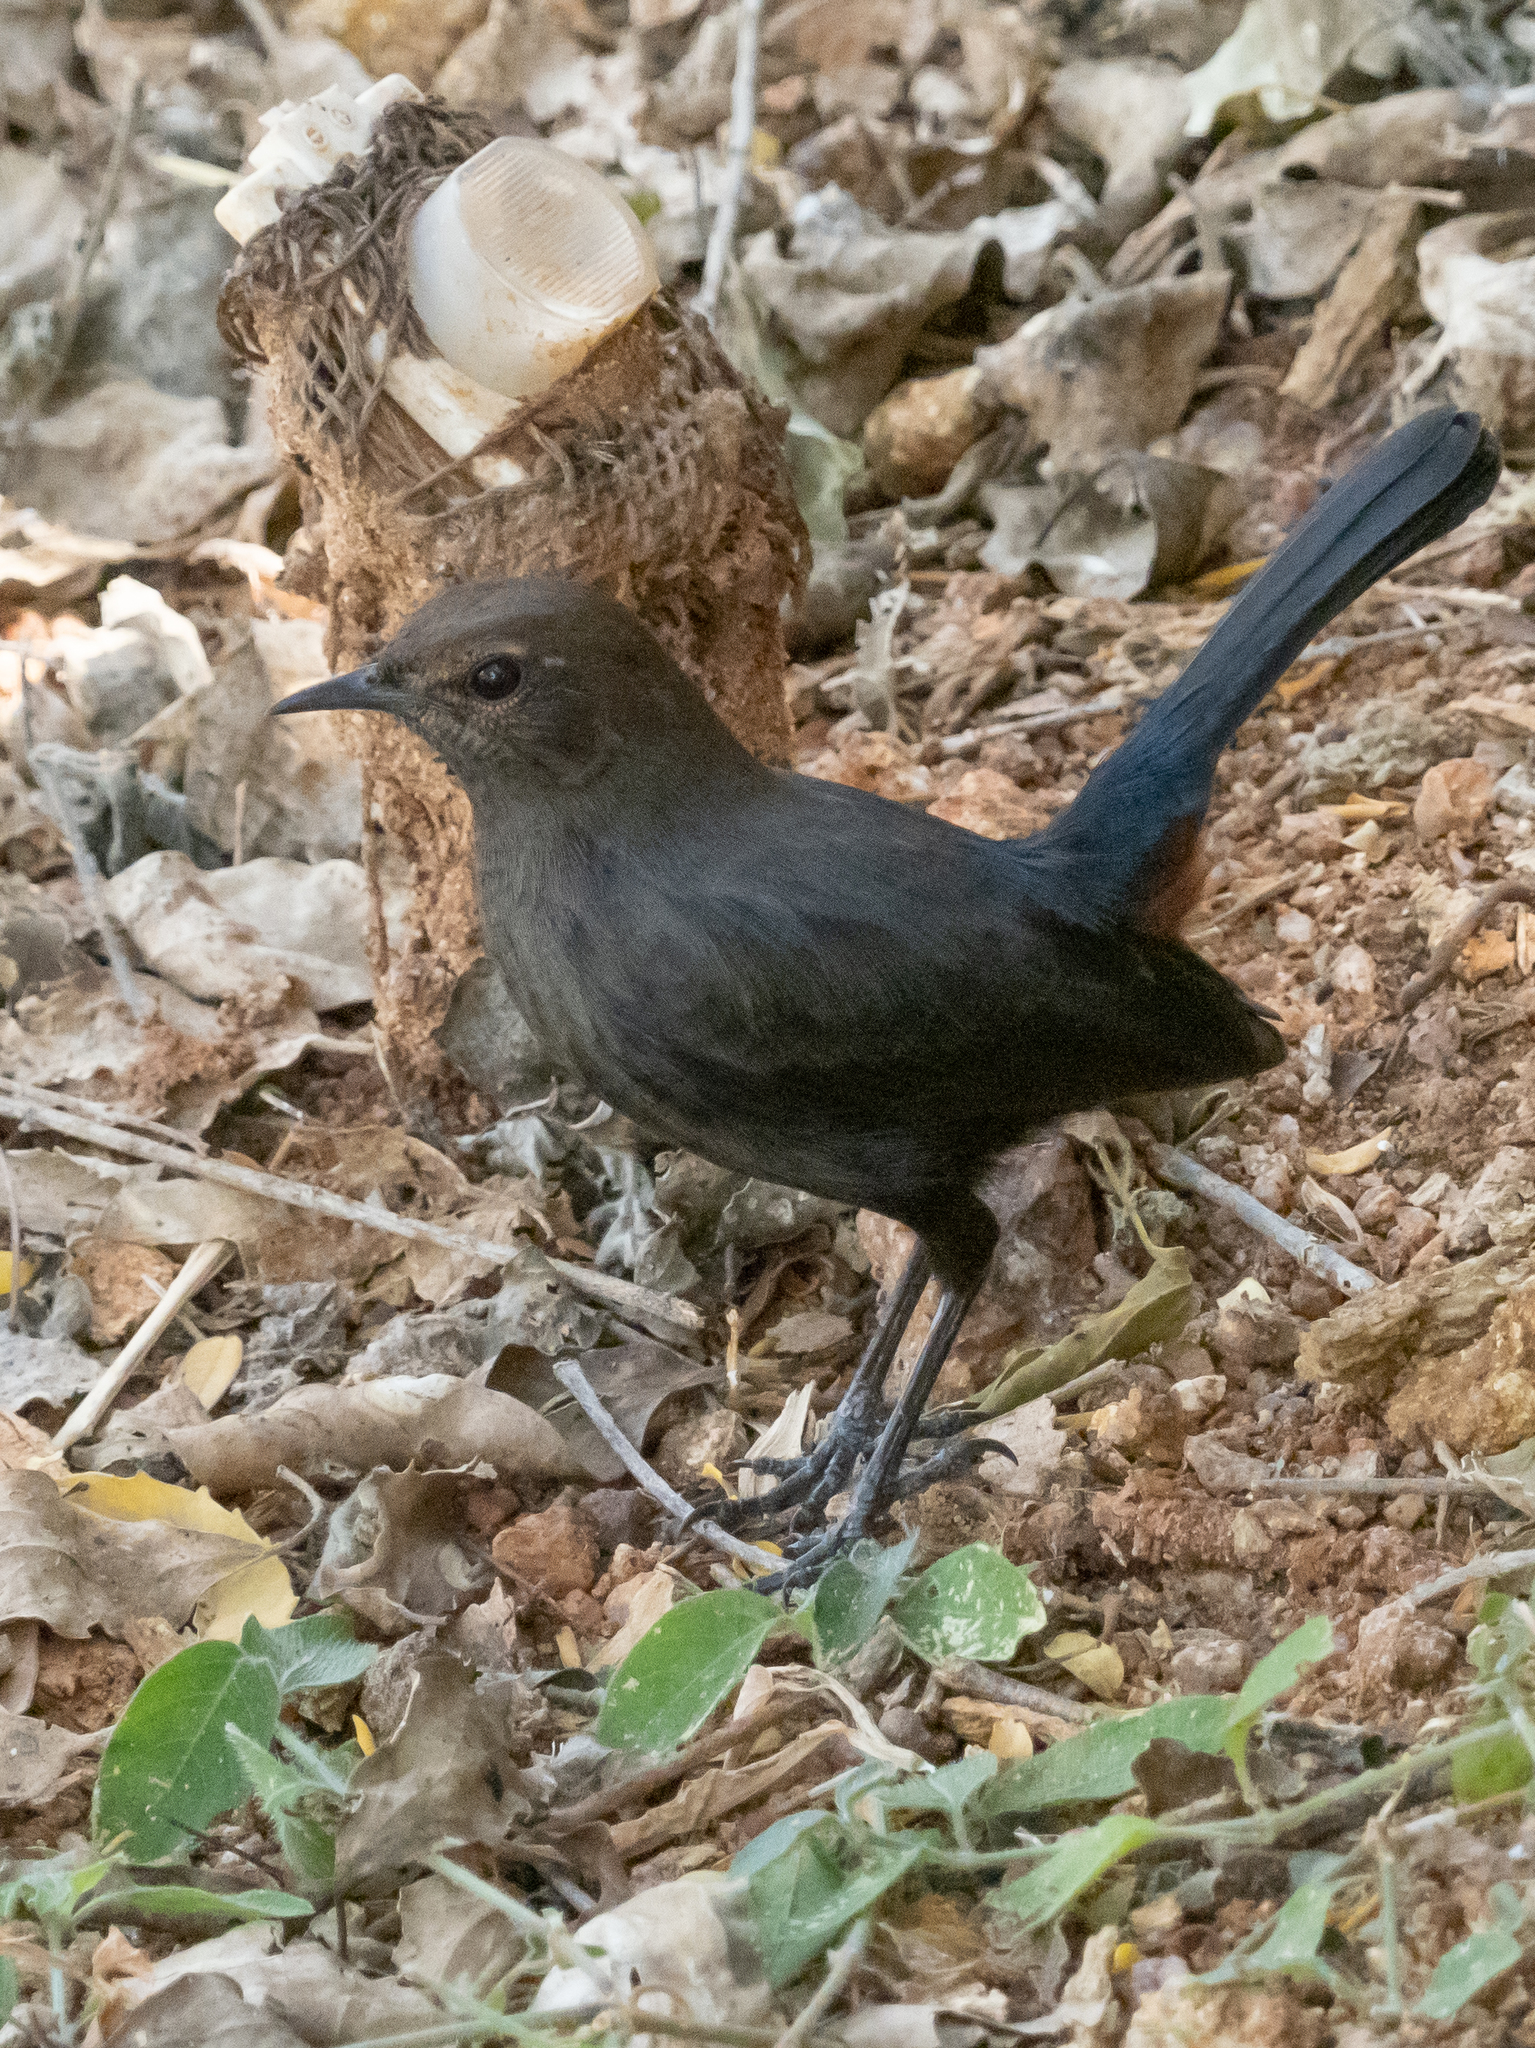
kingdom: Animalia
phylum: Chordata
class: Aves
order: Passeriformes
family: Muscicapidae
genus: Saxicoloides
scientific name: Saxicoloides fulicatus
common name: Indian robin
